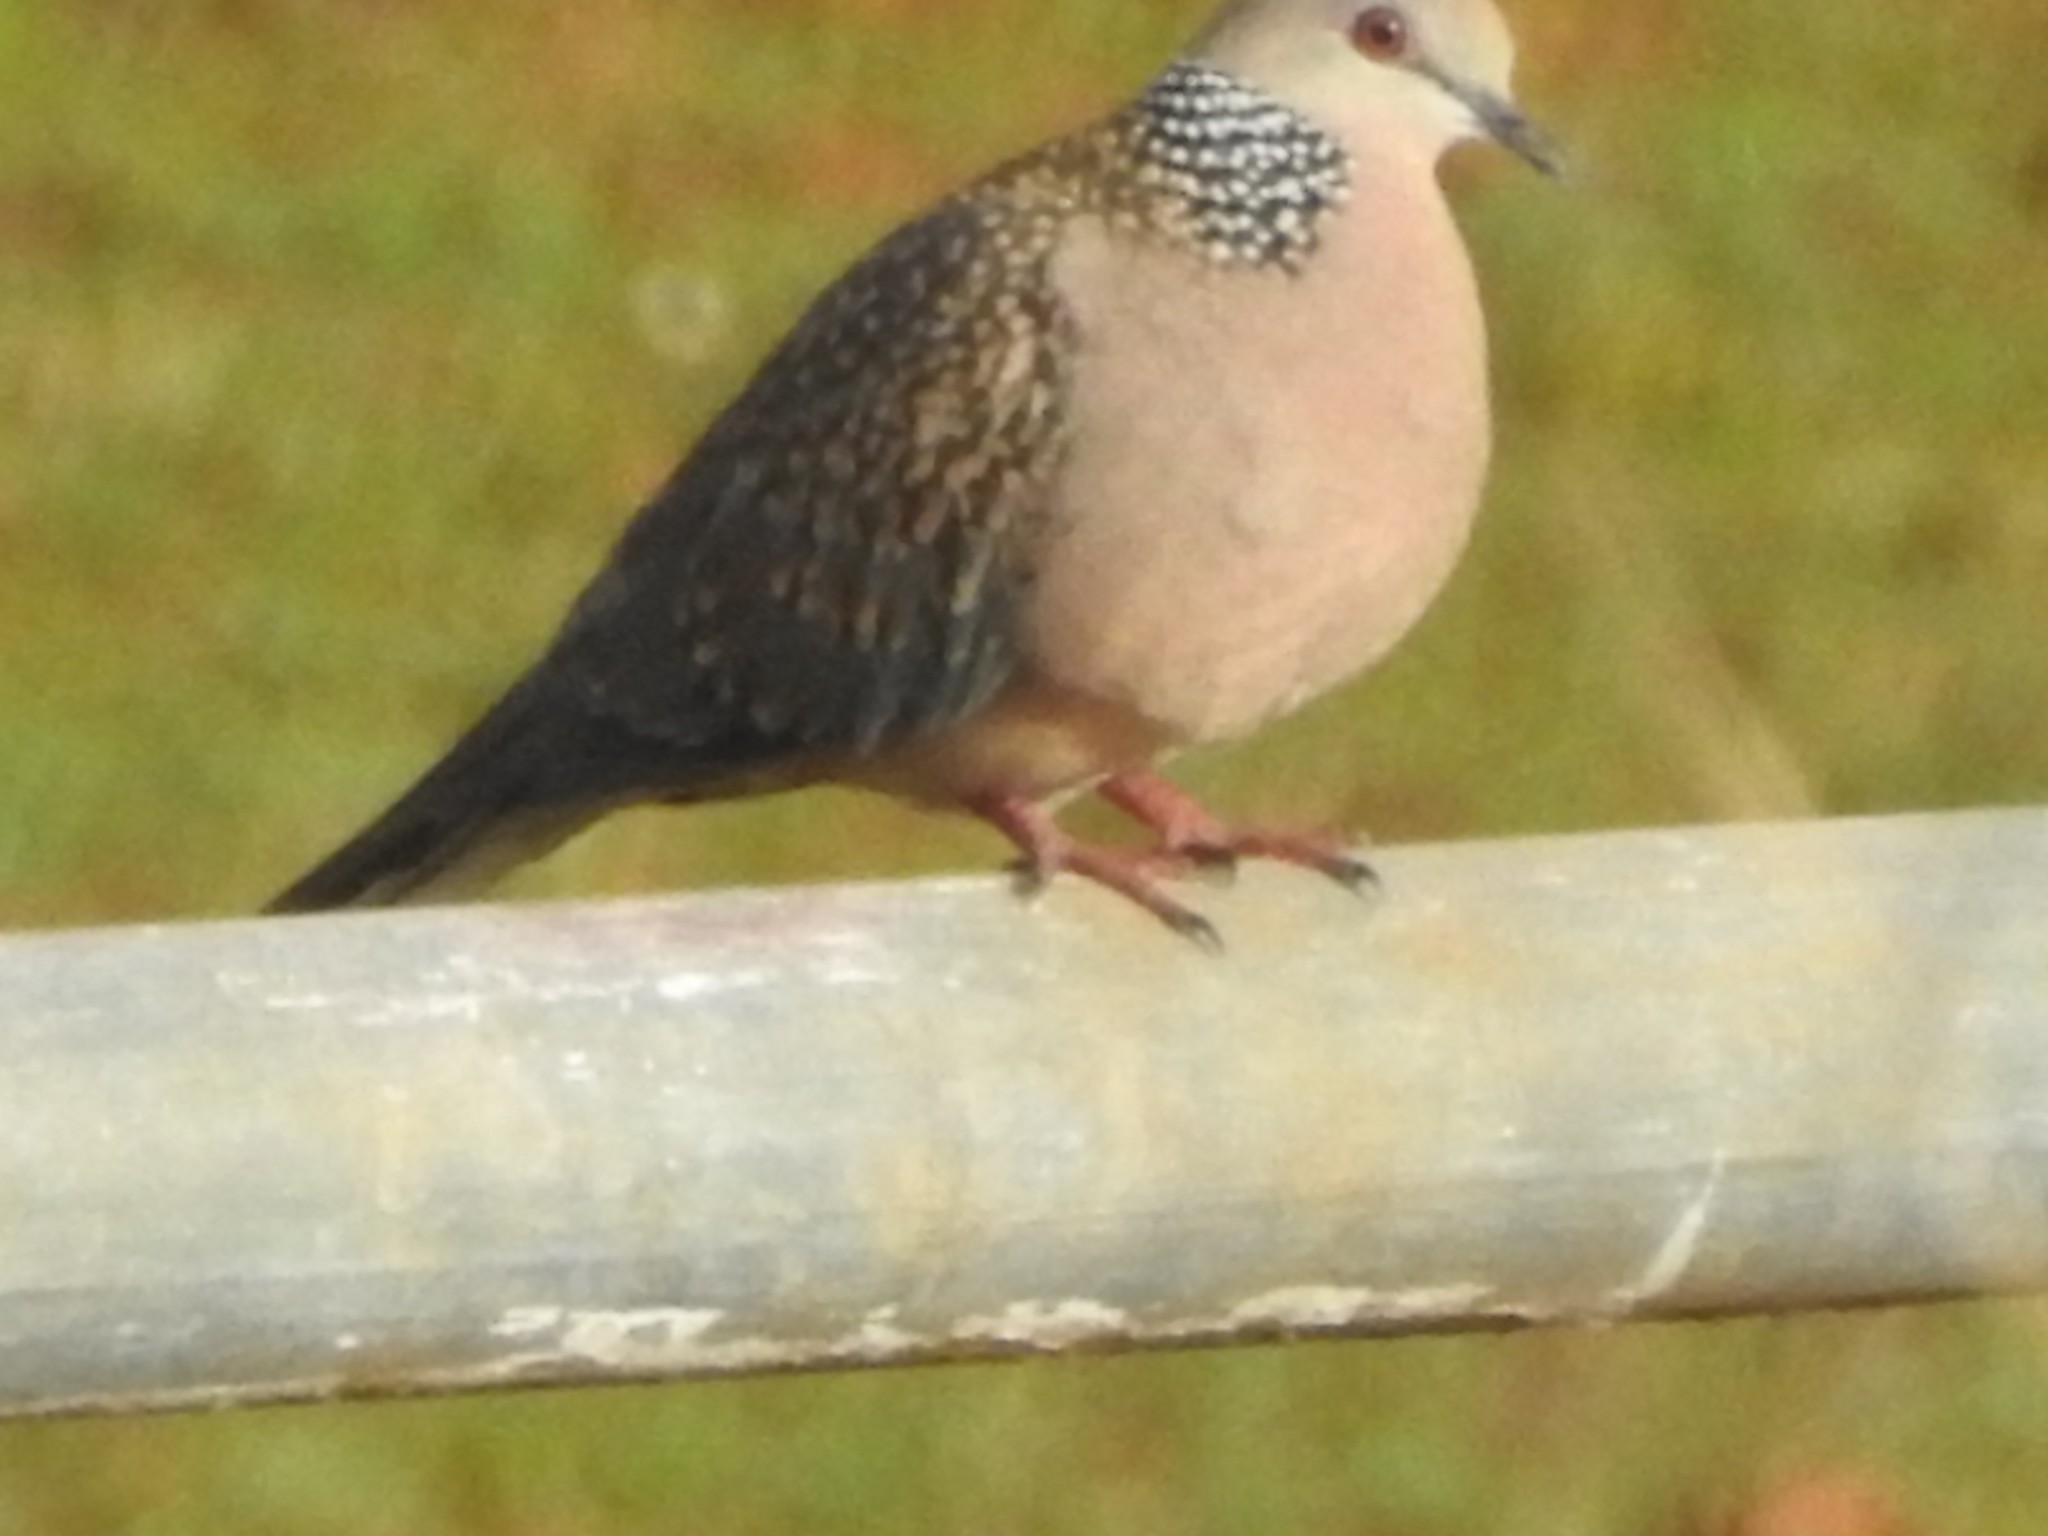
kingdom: Animalia
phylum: Chordata
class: Aves
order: Columbiformes
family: Columbidae
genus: Spilopelia
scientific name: Spilopelia chinensis
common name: Spotted dove
